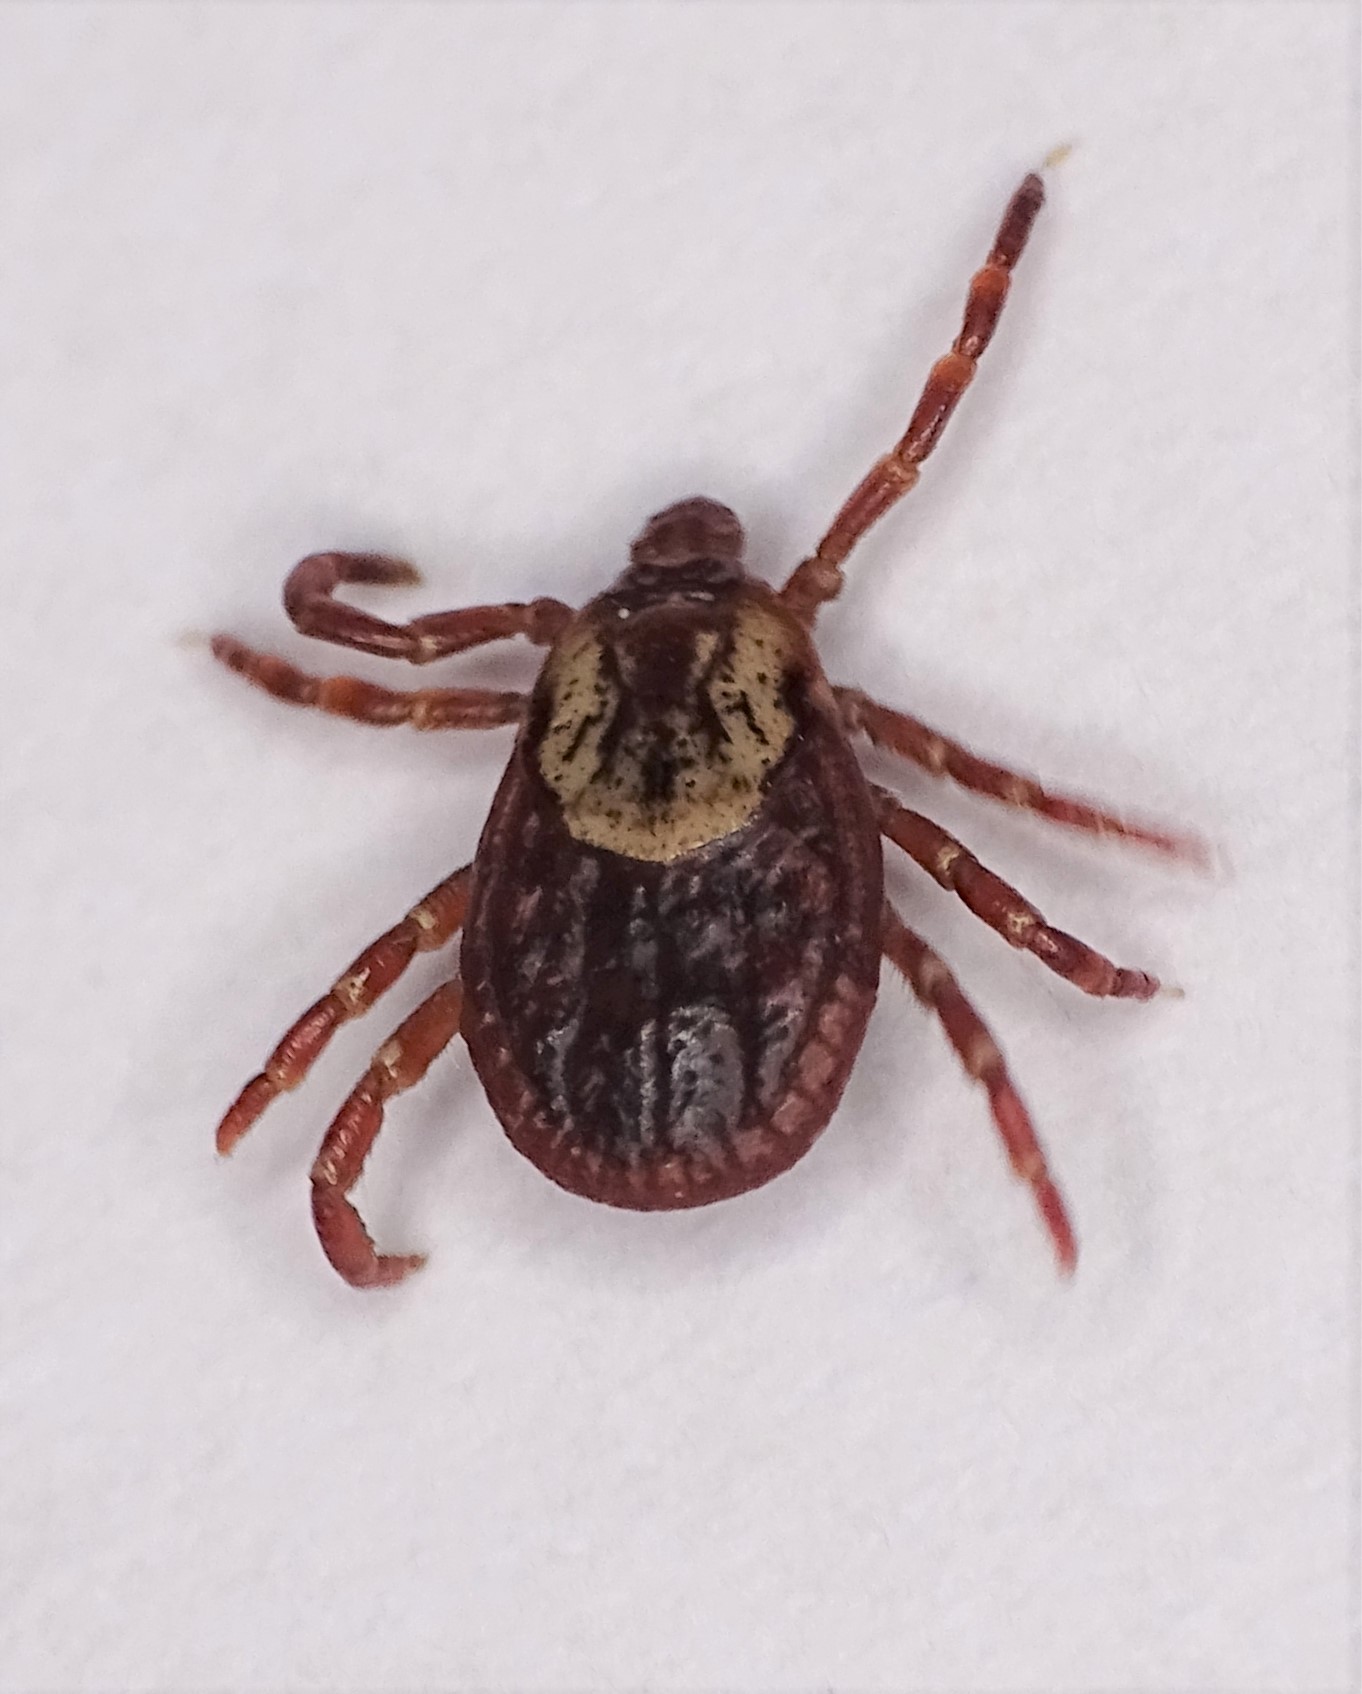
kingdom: Animalia
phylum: Arthropoda
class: Arachnida
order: Ixodida
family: Ixodidae
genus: Dermacentor
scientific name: Dermacentor variabilis
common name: American dog tick
